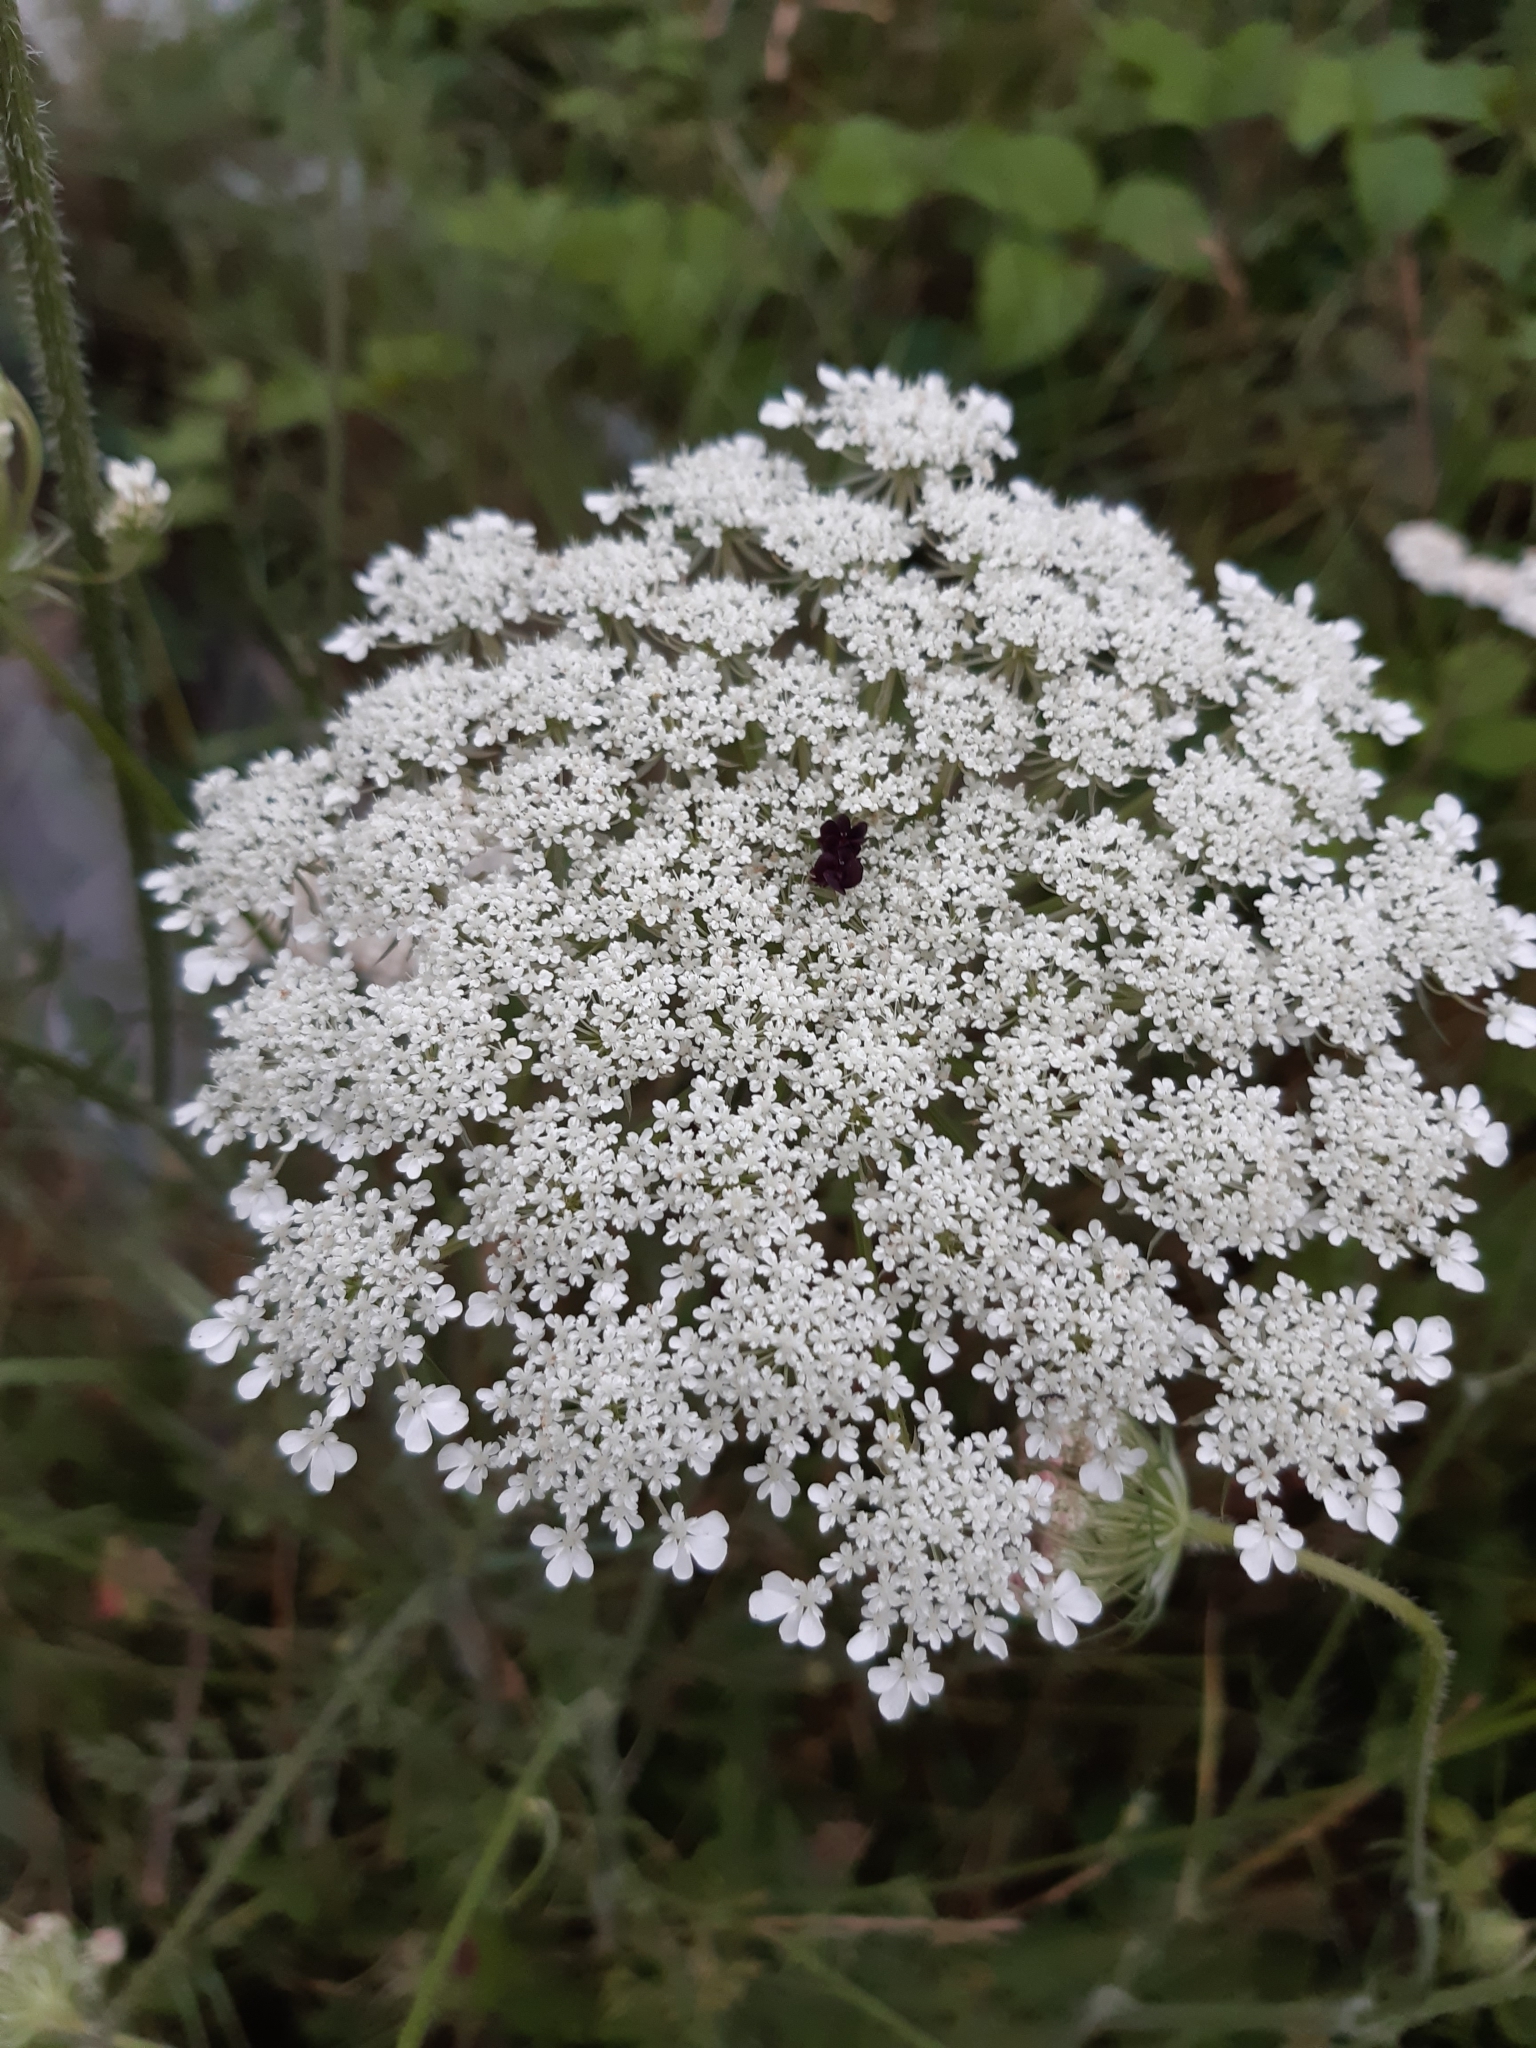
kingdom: Plantae
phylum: Tracheophyta
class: Magnoliopsida
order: Apiales
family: Apiaceae
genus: Daucus
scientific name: Daucus carota
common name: Wild carrot
